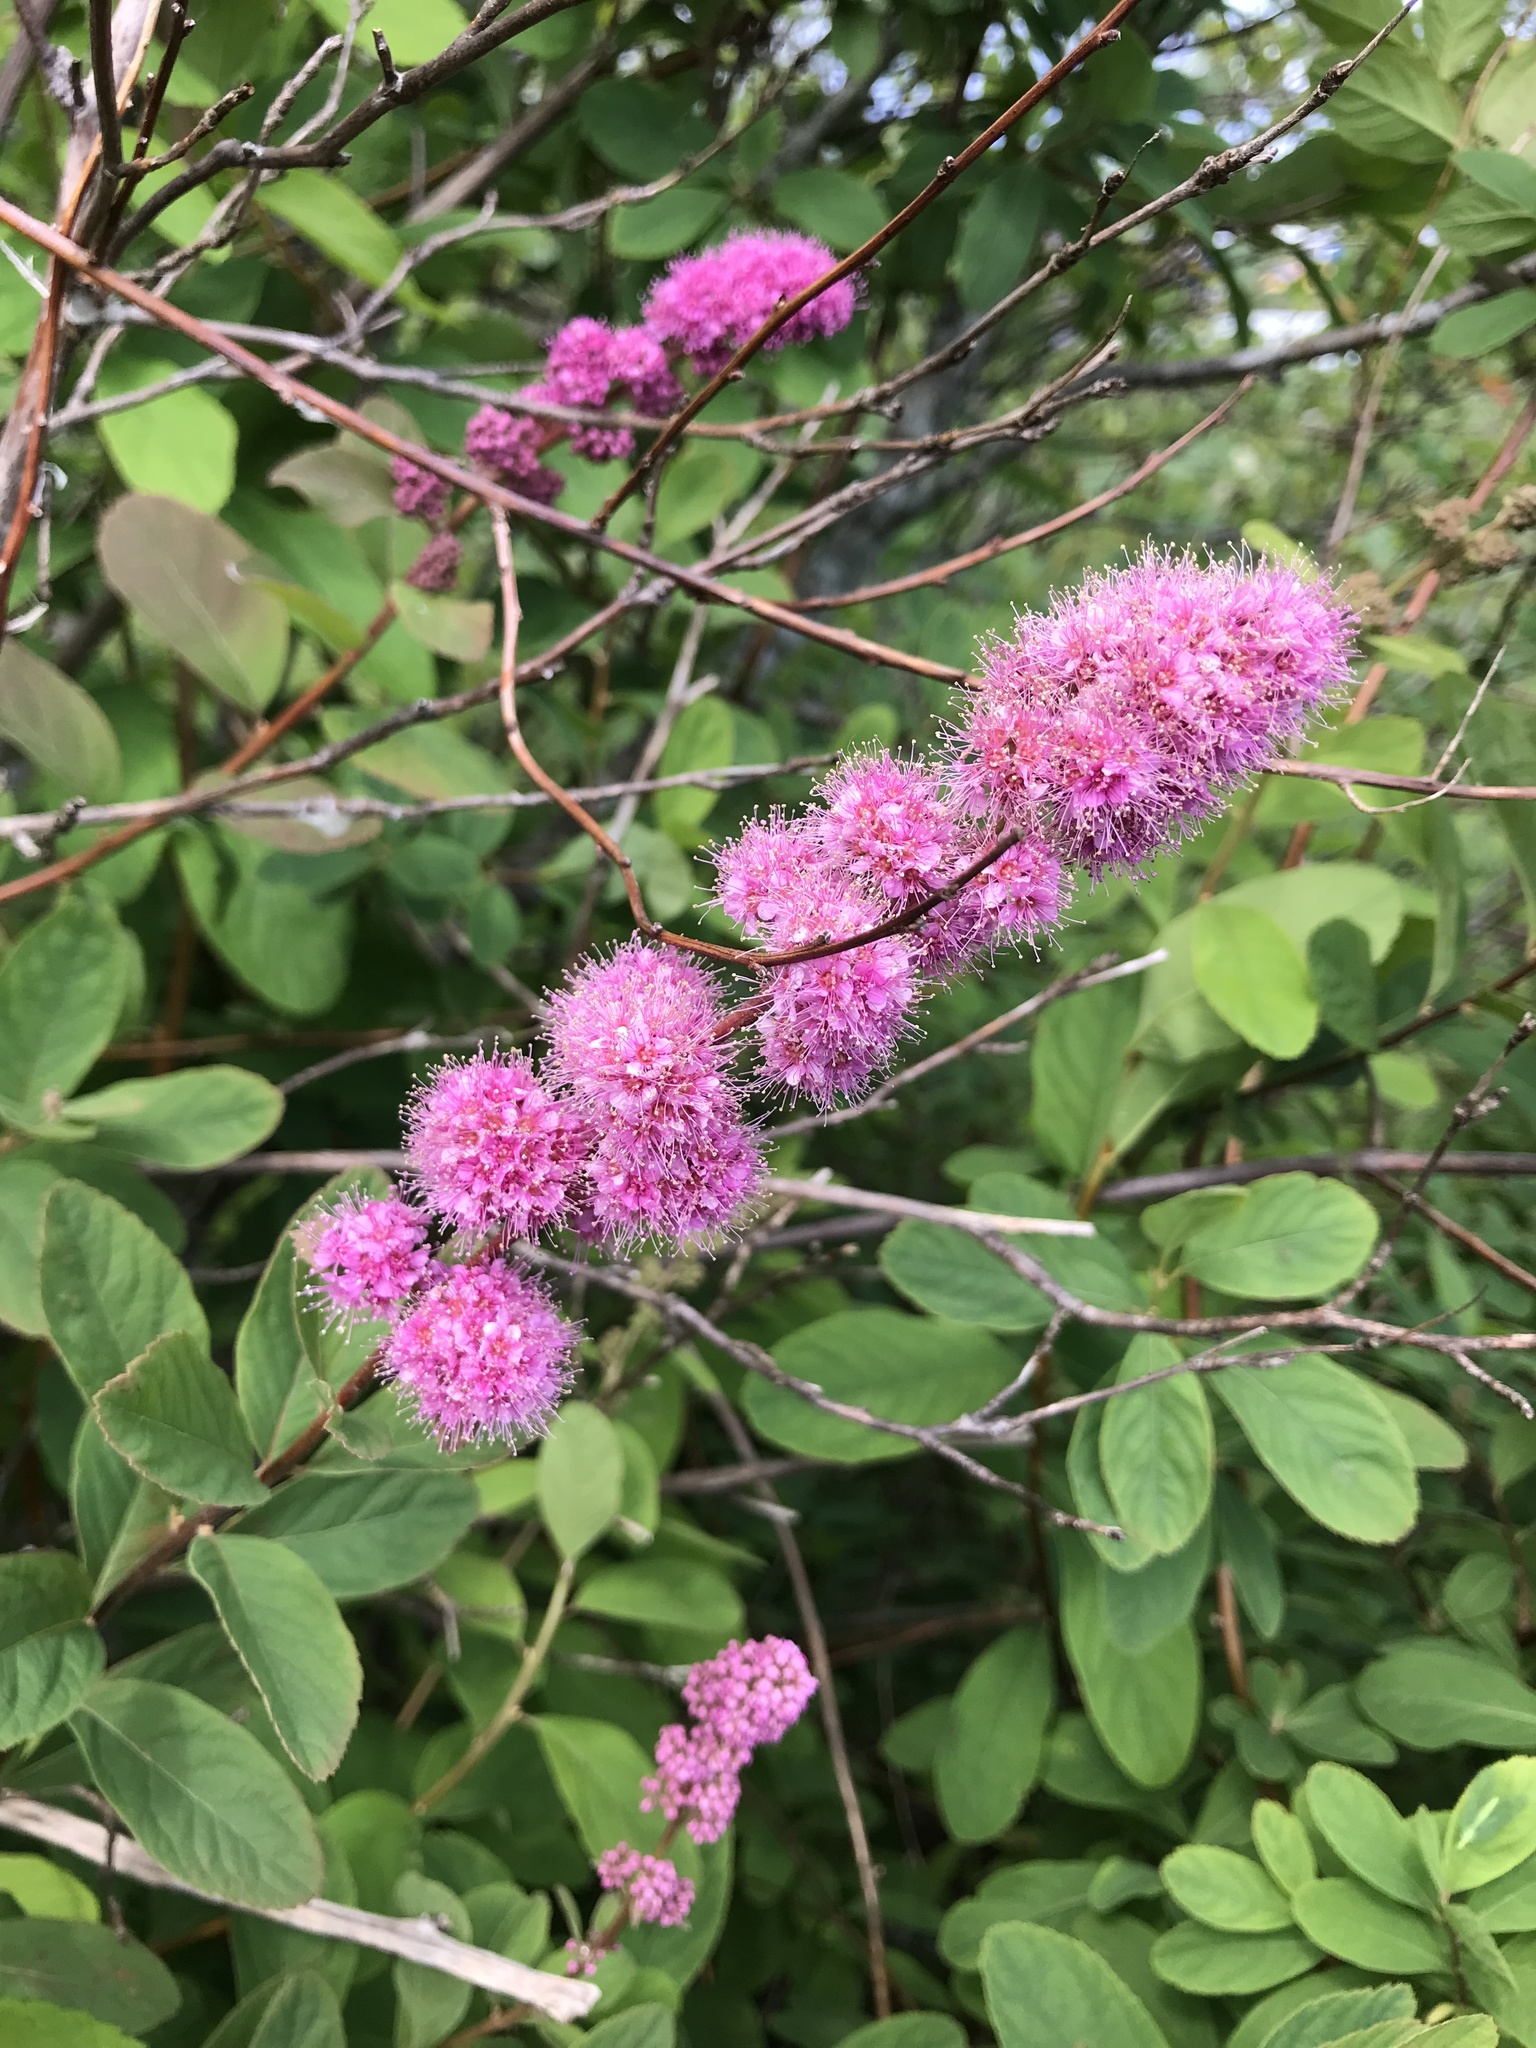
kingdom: Plantae
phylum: Tracheophyta
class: Magnoliopsida
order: Rosales
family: Rosaceae
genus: Spiraea
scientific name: Spiraea douglasii
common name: Steeplebush
